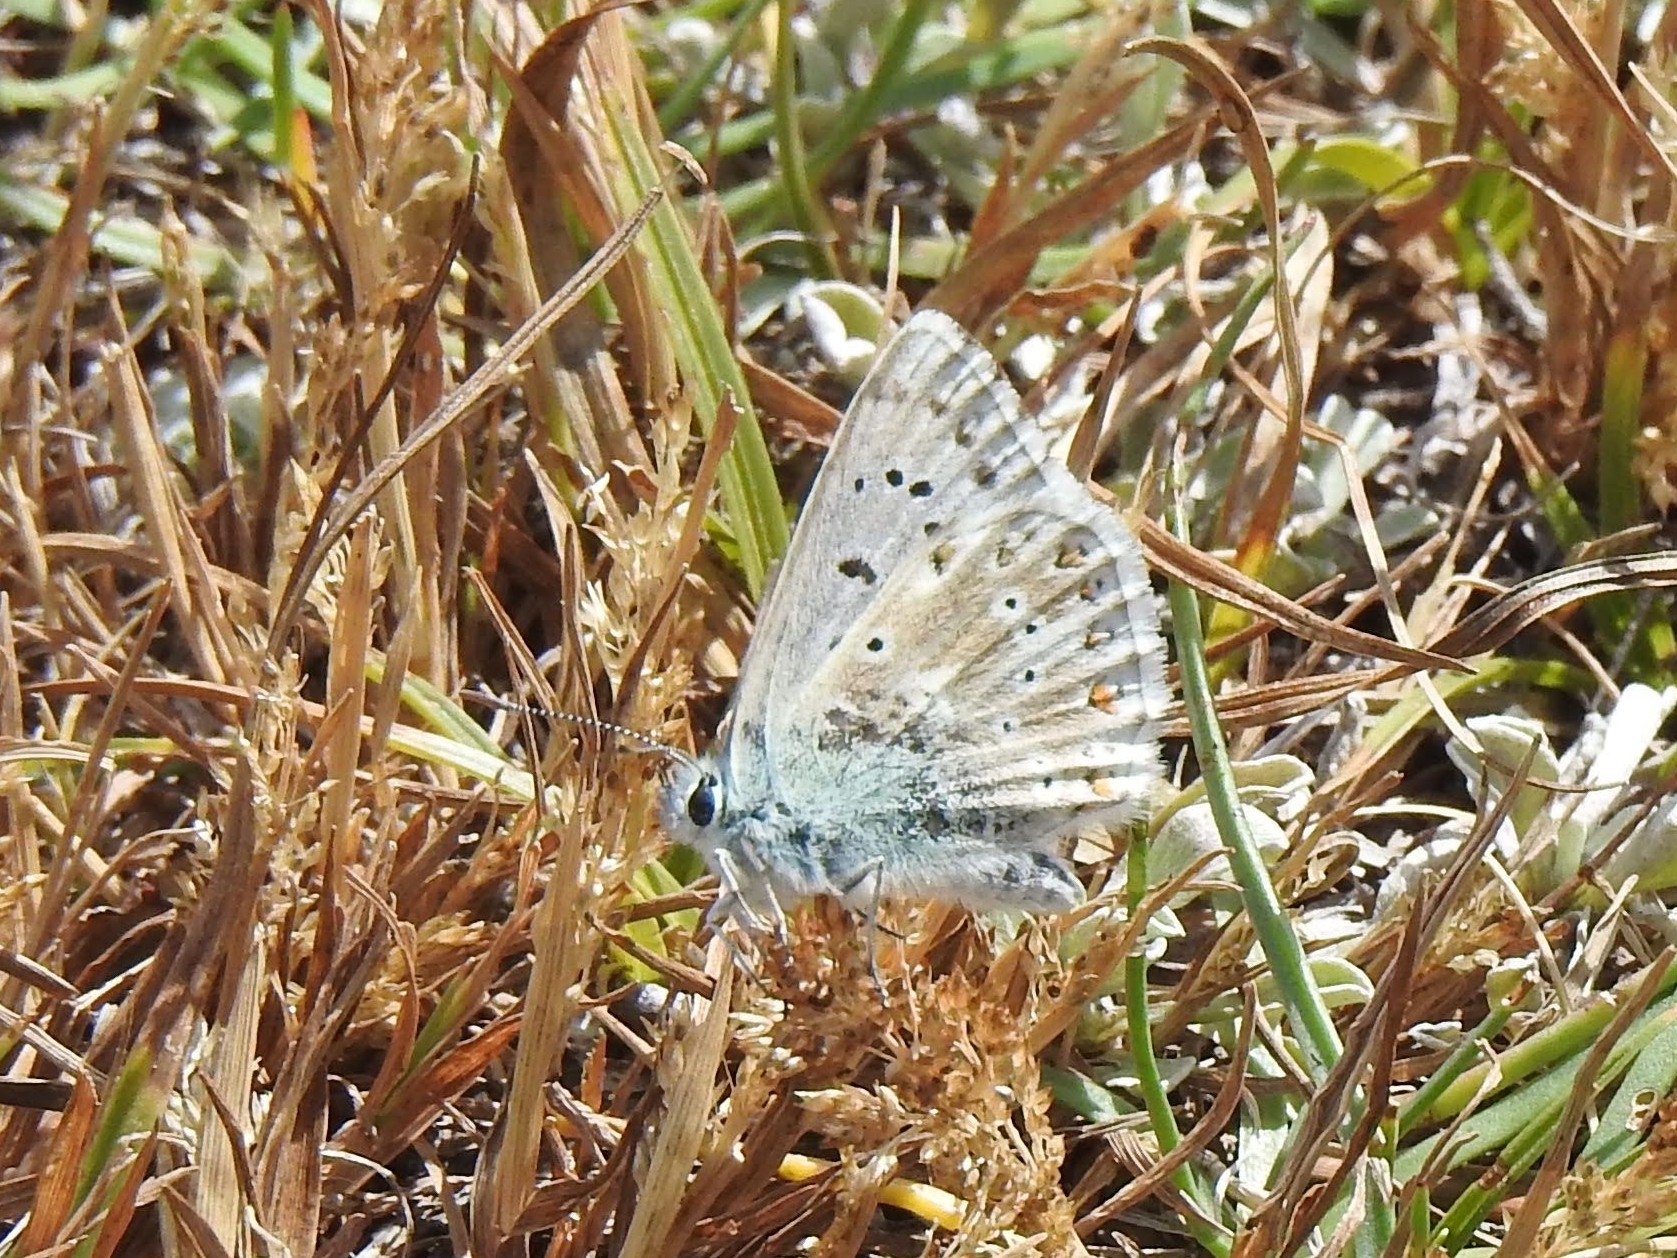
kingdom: Animalia
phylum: Arthropoda
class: Insecta
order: Lepidoptera
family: Lycaenidae
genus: Lysandra
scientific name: Lysandra coridon
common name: Chalkhill blue
